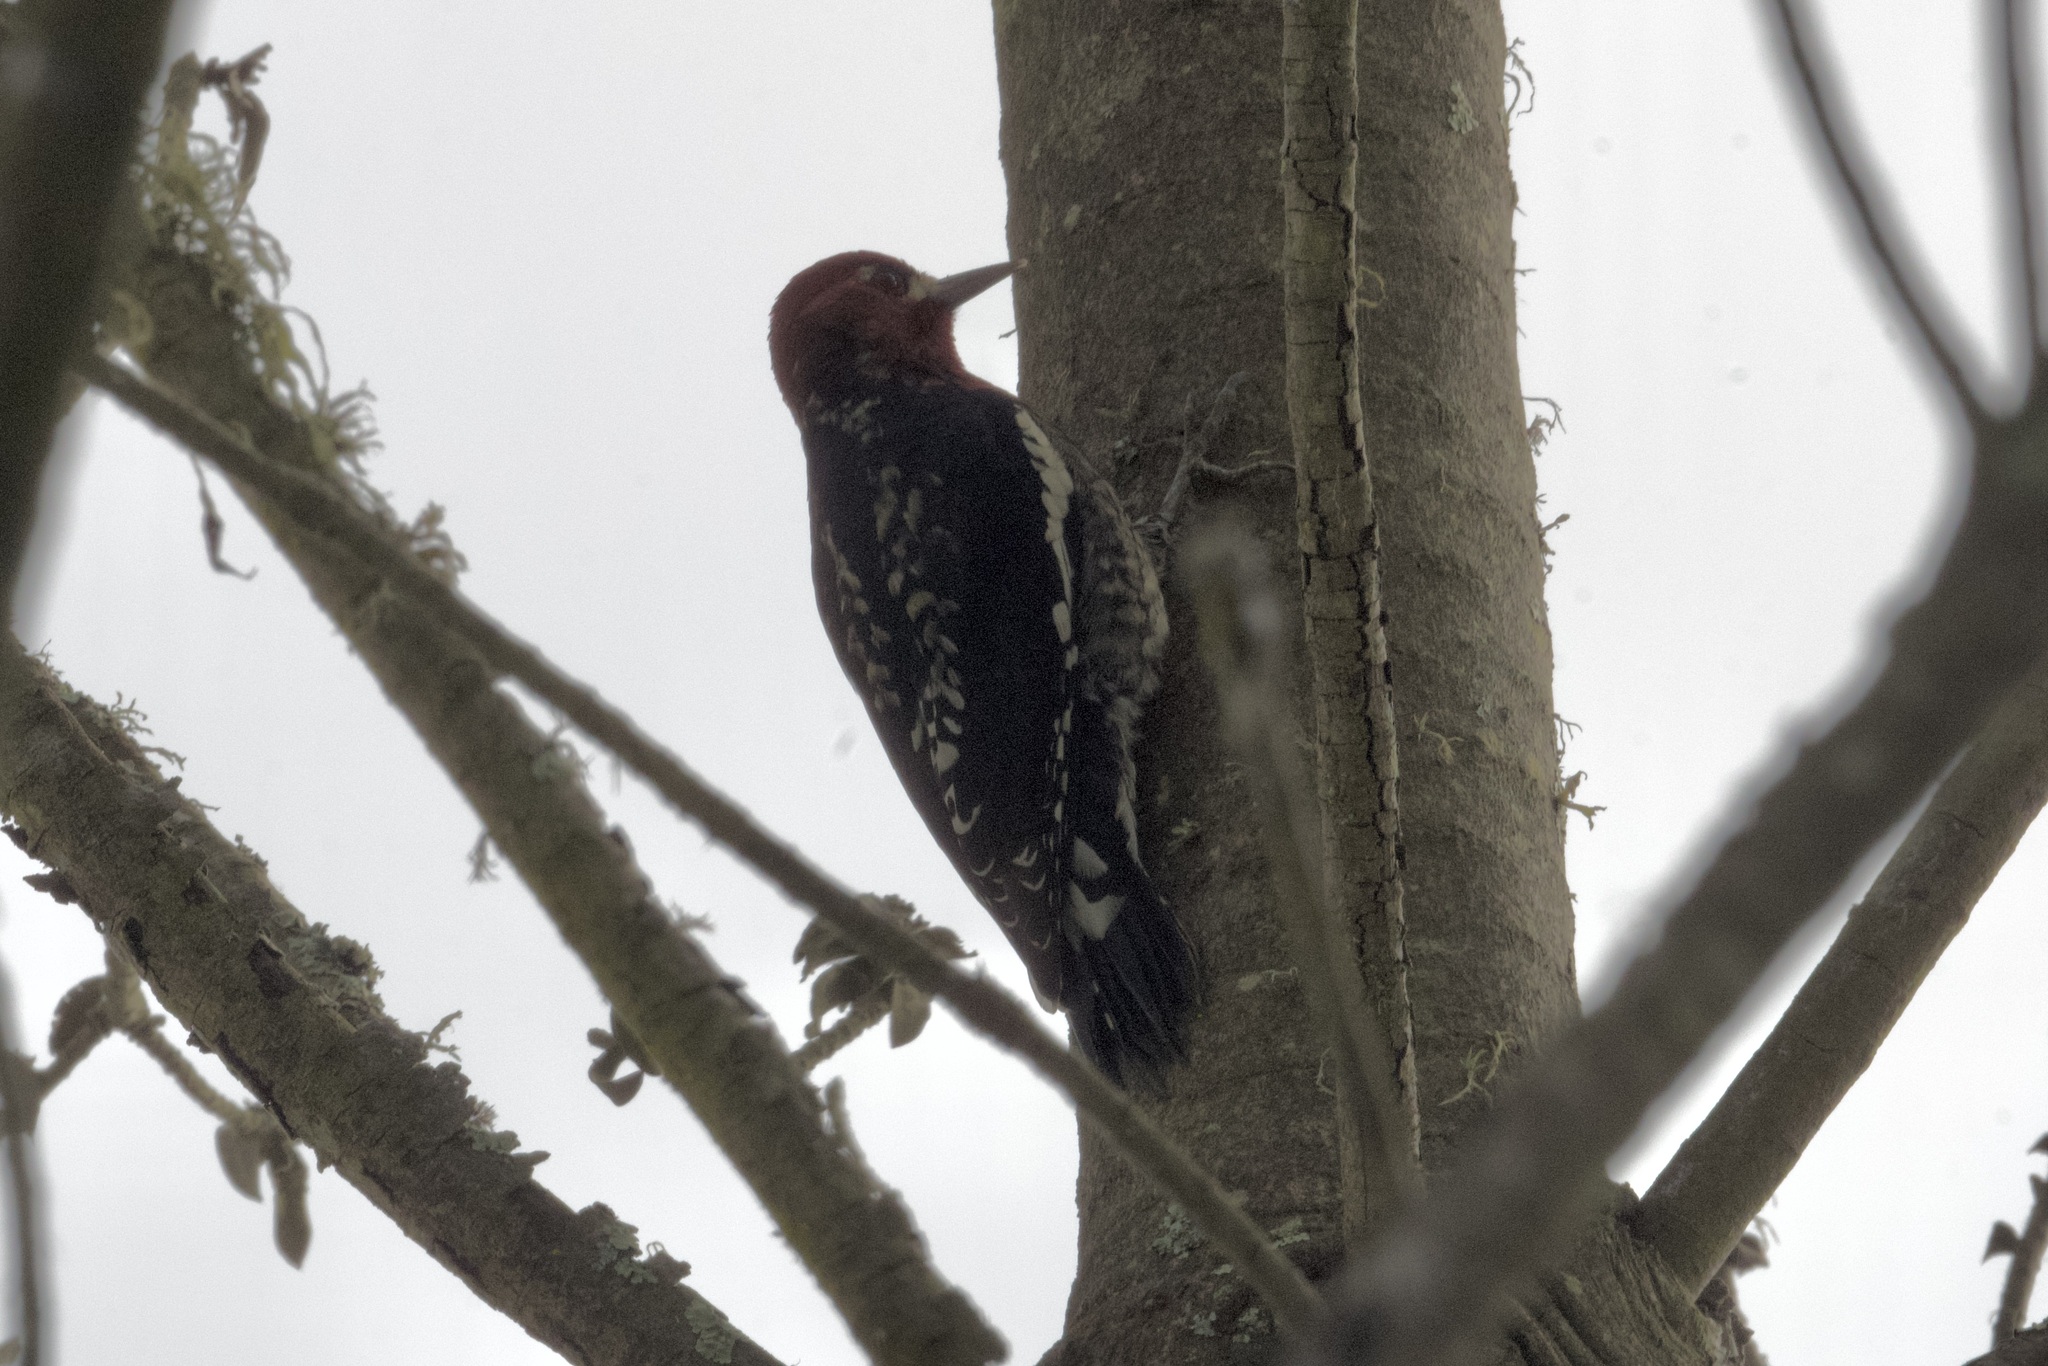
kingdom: Animalia
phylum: Chordata
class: Aves
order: Piciformes
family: Picidae
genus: Sphyrapicus
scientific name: Sphyrapicus ruber
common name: Red-breasted sapsucker
